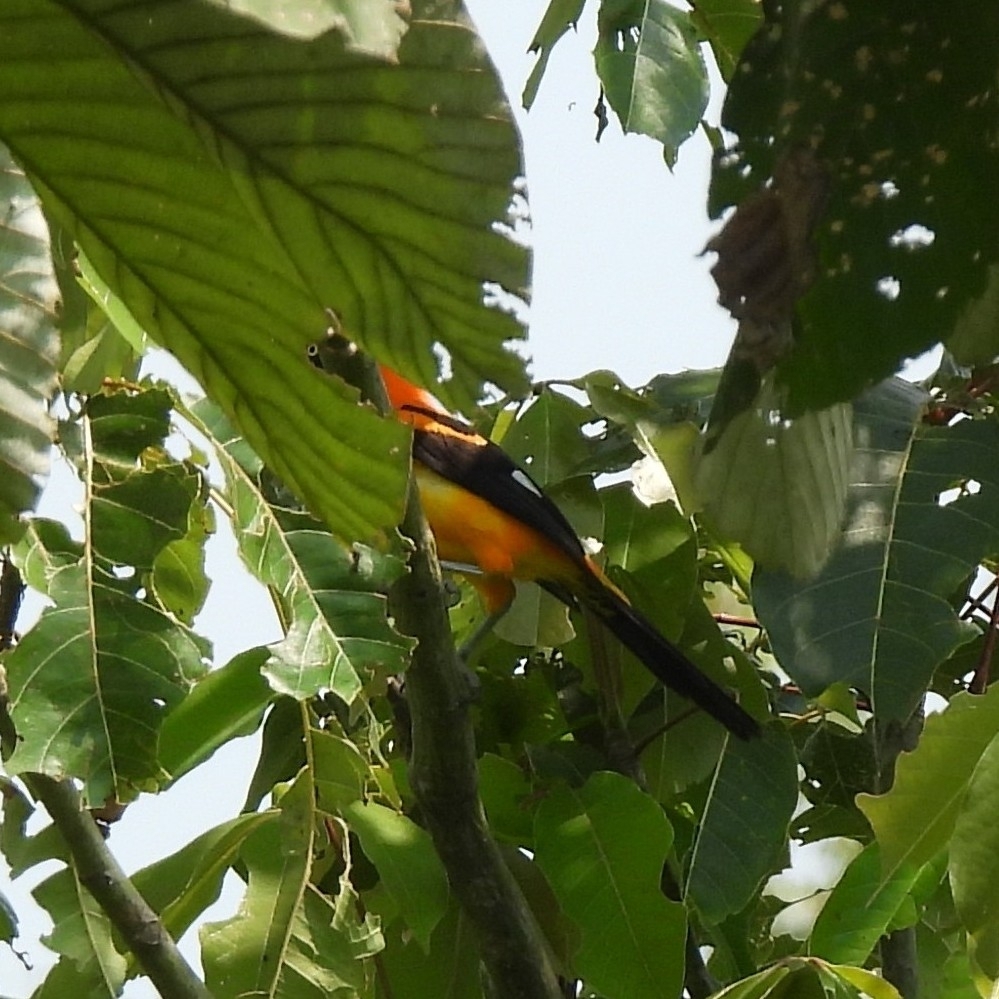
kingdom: Animalia
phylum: Chordata
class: Aves
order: Passeriformes
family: Icteridae
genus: Icterus
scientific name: Icterus icterus
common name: Venezuelan troupial
